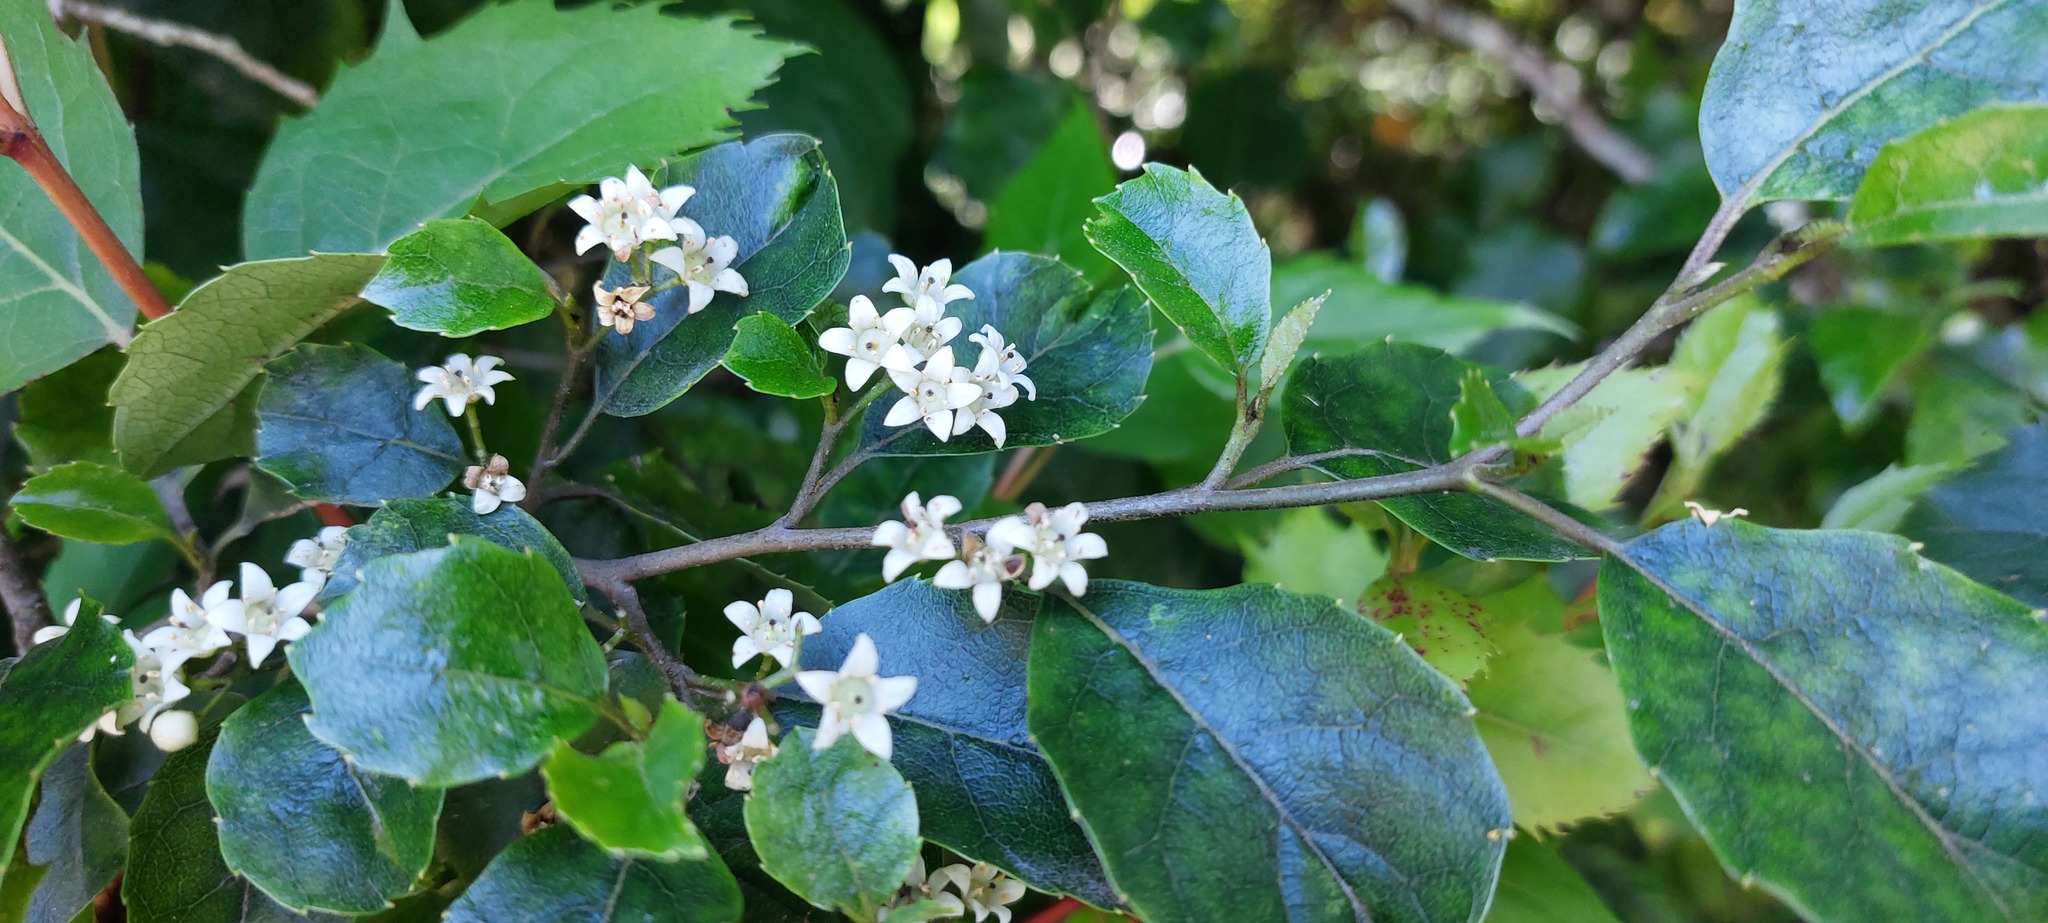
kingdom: Plantae
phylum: Tracheophyta
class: Magnoliopsida
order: Asterales
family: Rousseaceae
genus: Carpodetus
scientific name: Carpodetus serratus
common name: White mapau
